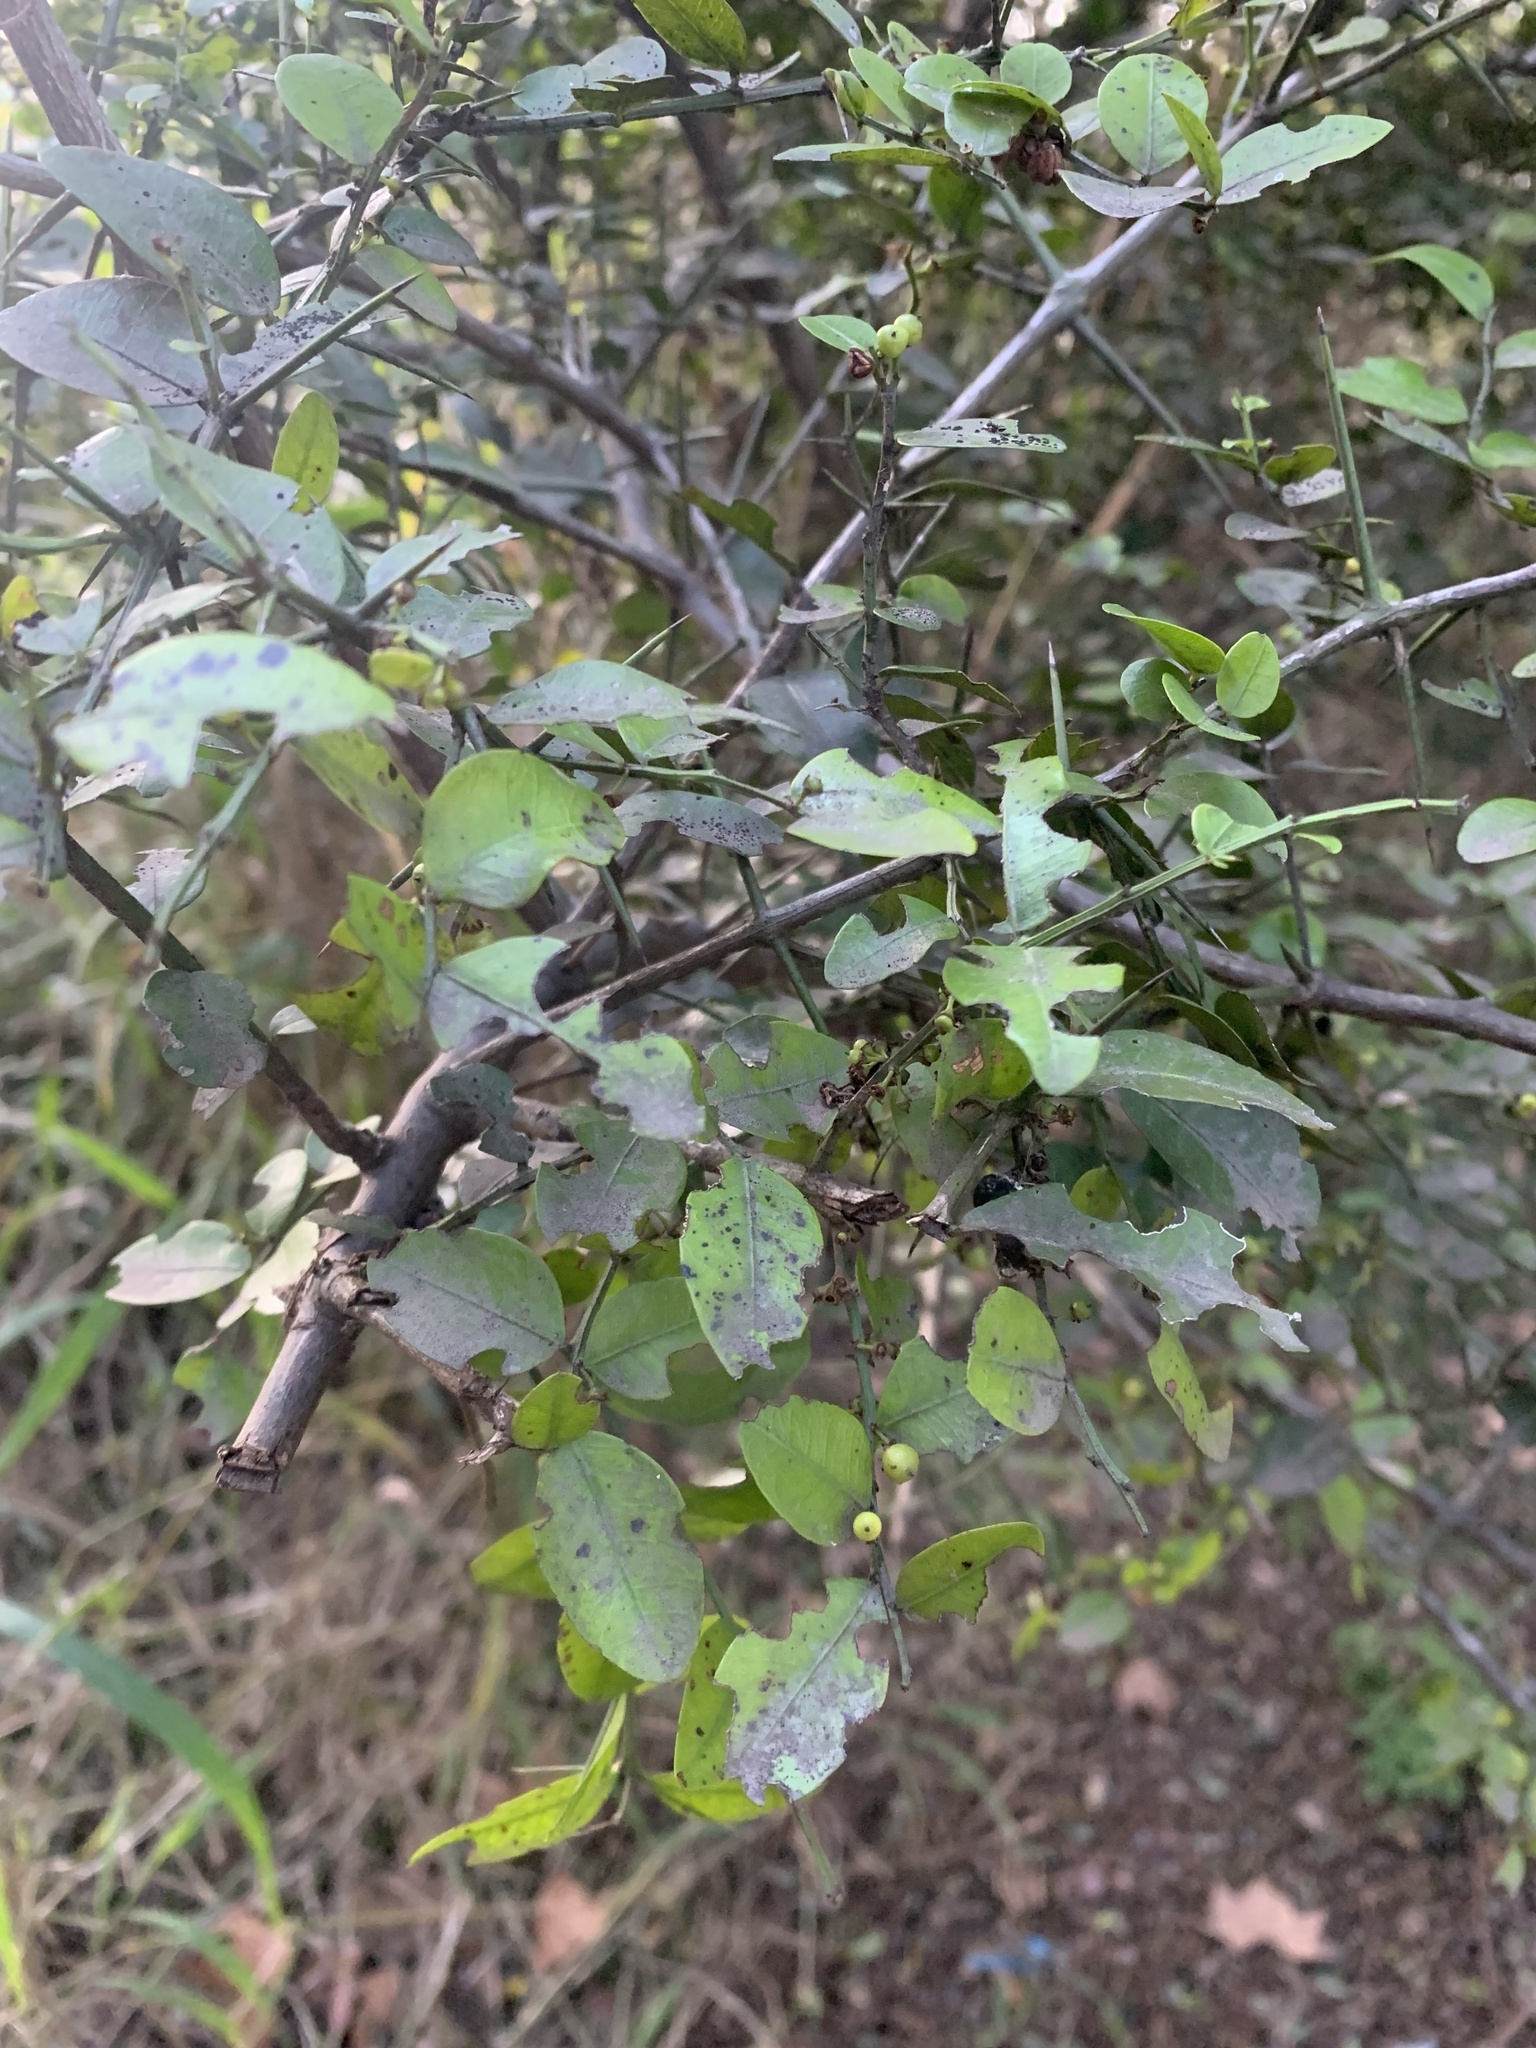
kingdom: Plantae
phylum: Tracheophyta
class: Magnoliopsida
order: Rosales
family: Rhamnaceae
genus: Scutia
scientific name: Scutia buxifolia
